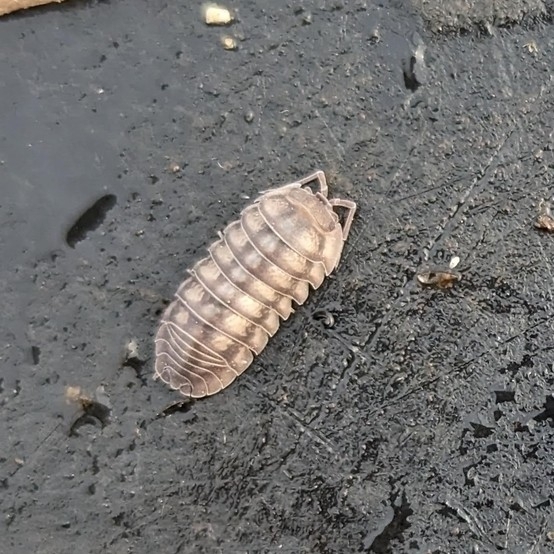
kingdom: Animalia
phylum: Arthropoda
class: Malacostraca
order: Isopoda
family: Armadillidiidae
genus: Armadillidium
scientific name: Armadillidium nasatum
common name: Isopod
